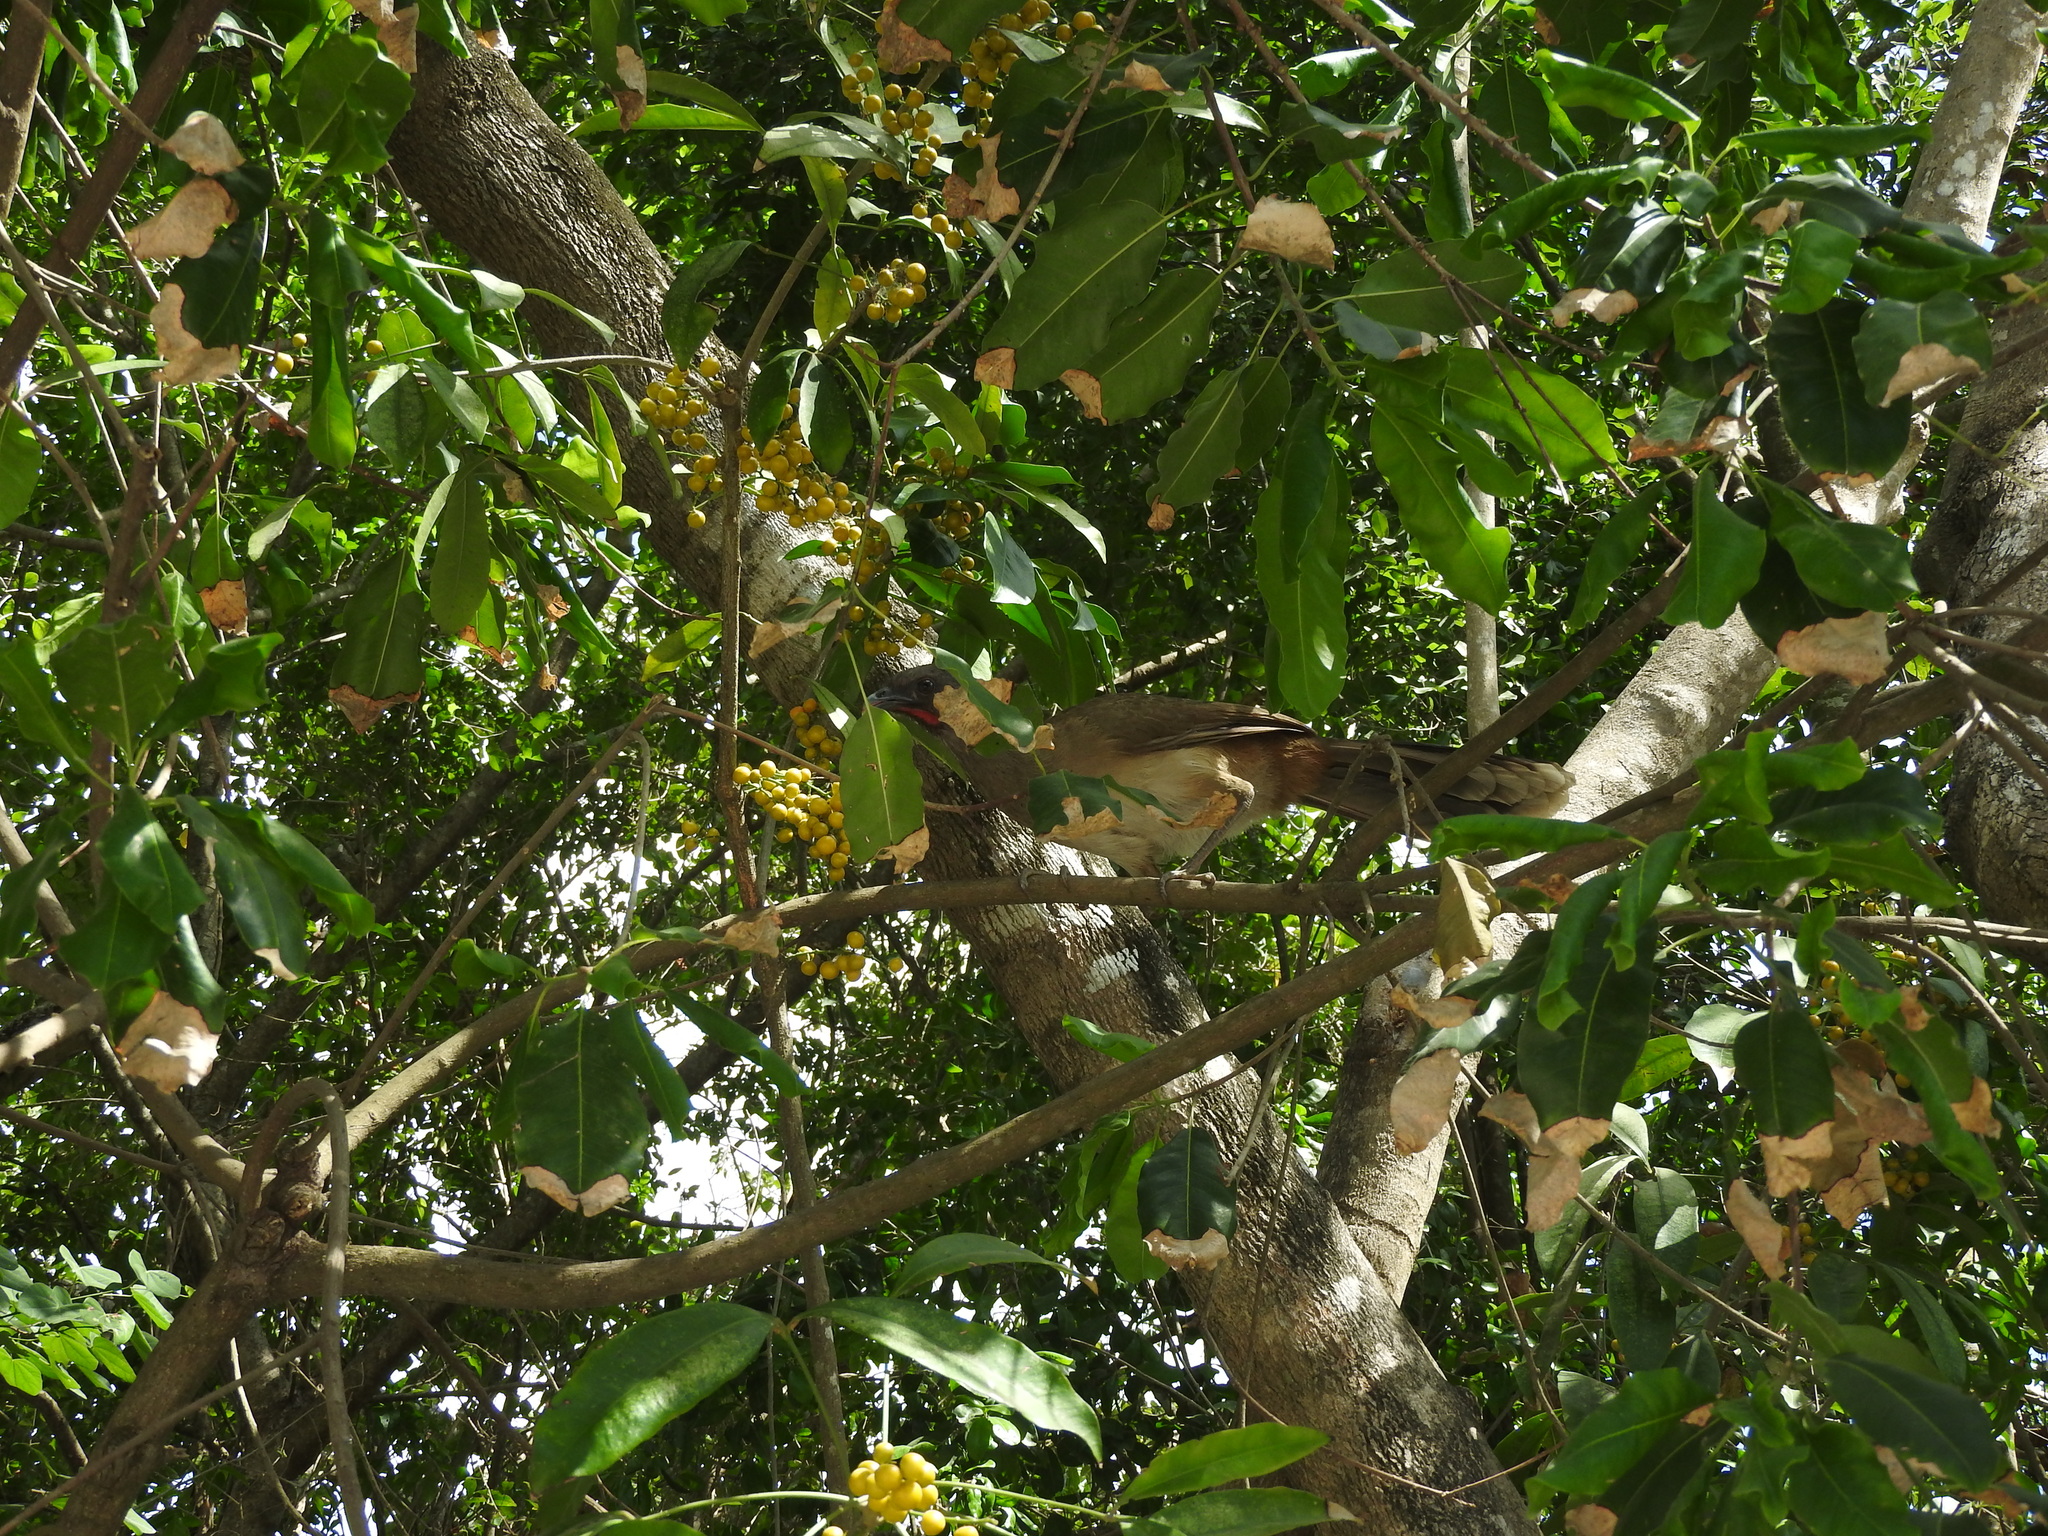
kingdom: Animalia
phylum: Chordata
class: Aves
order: Galliformes
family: Cracidae
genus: Ortalis
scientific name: Ortalis vetula
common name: Plain chachalaca
